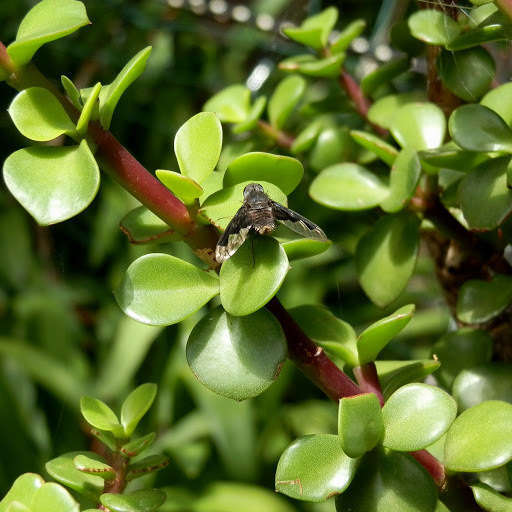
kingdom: Animalia
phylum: Arthropoda
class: Insecta
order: Diptera
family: Bombyliidae
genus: Anthrax
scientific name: Anthrax dolobratus
